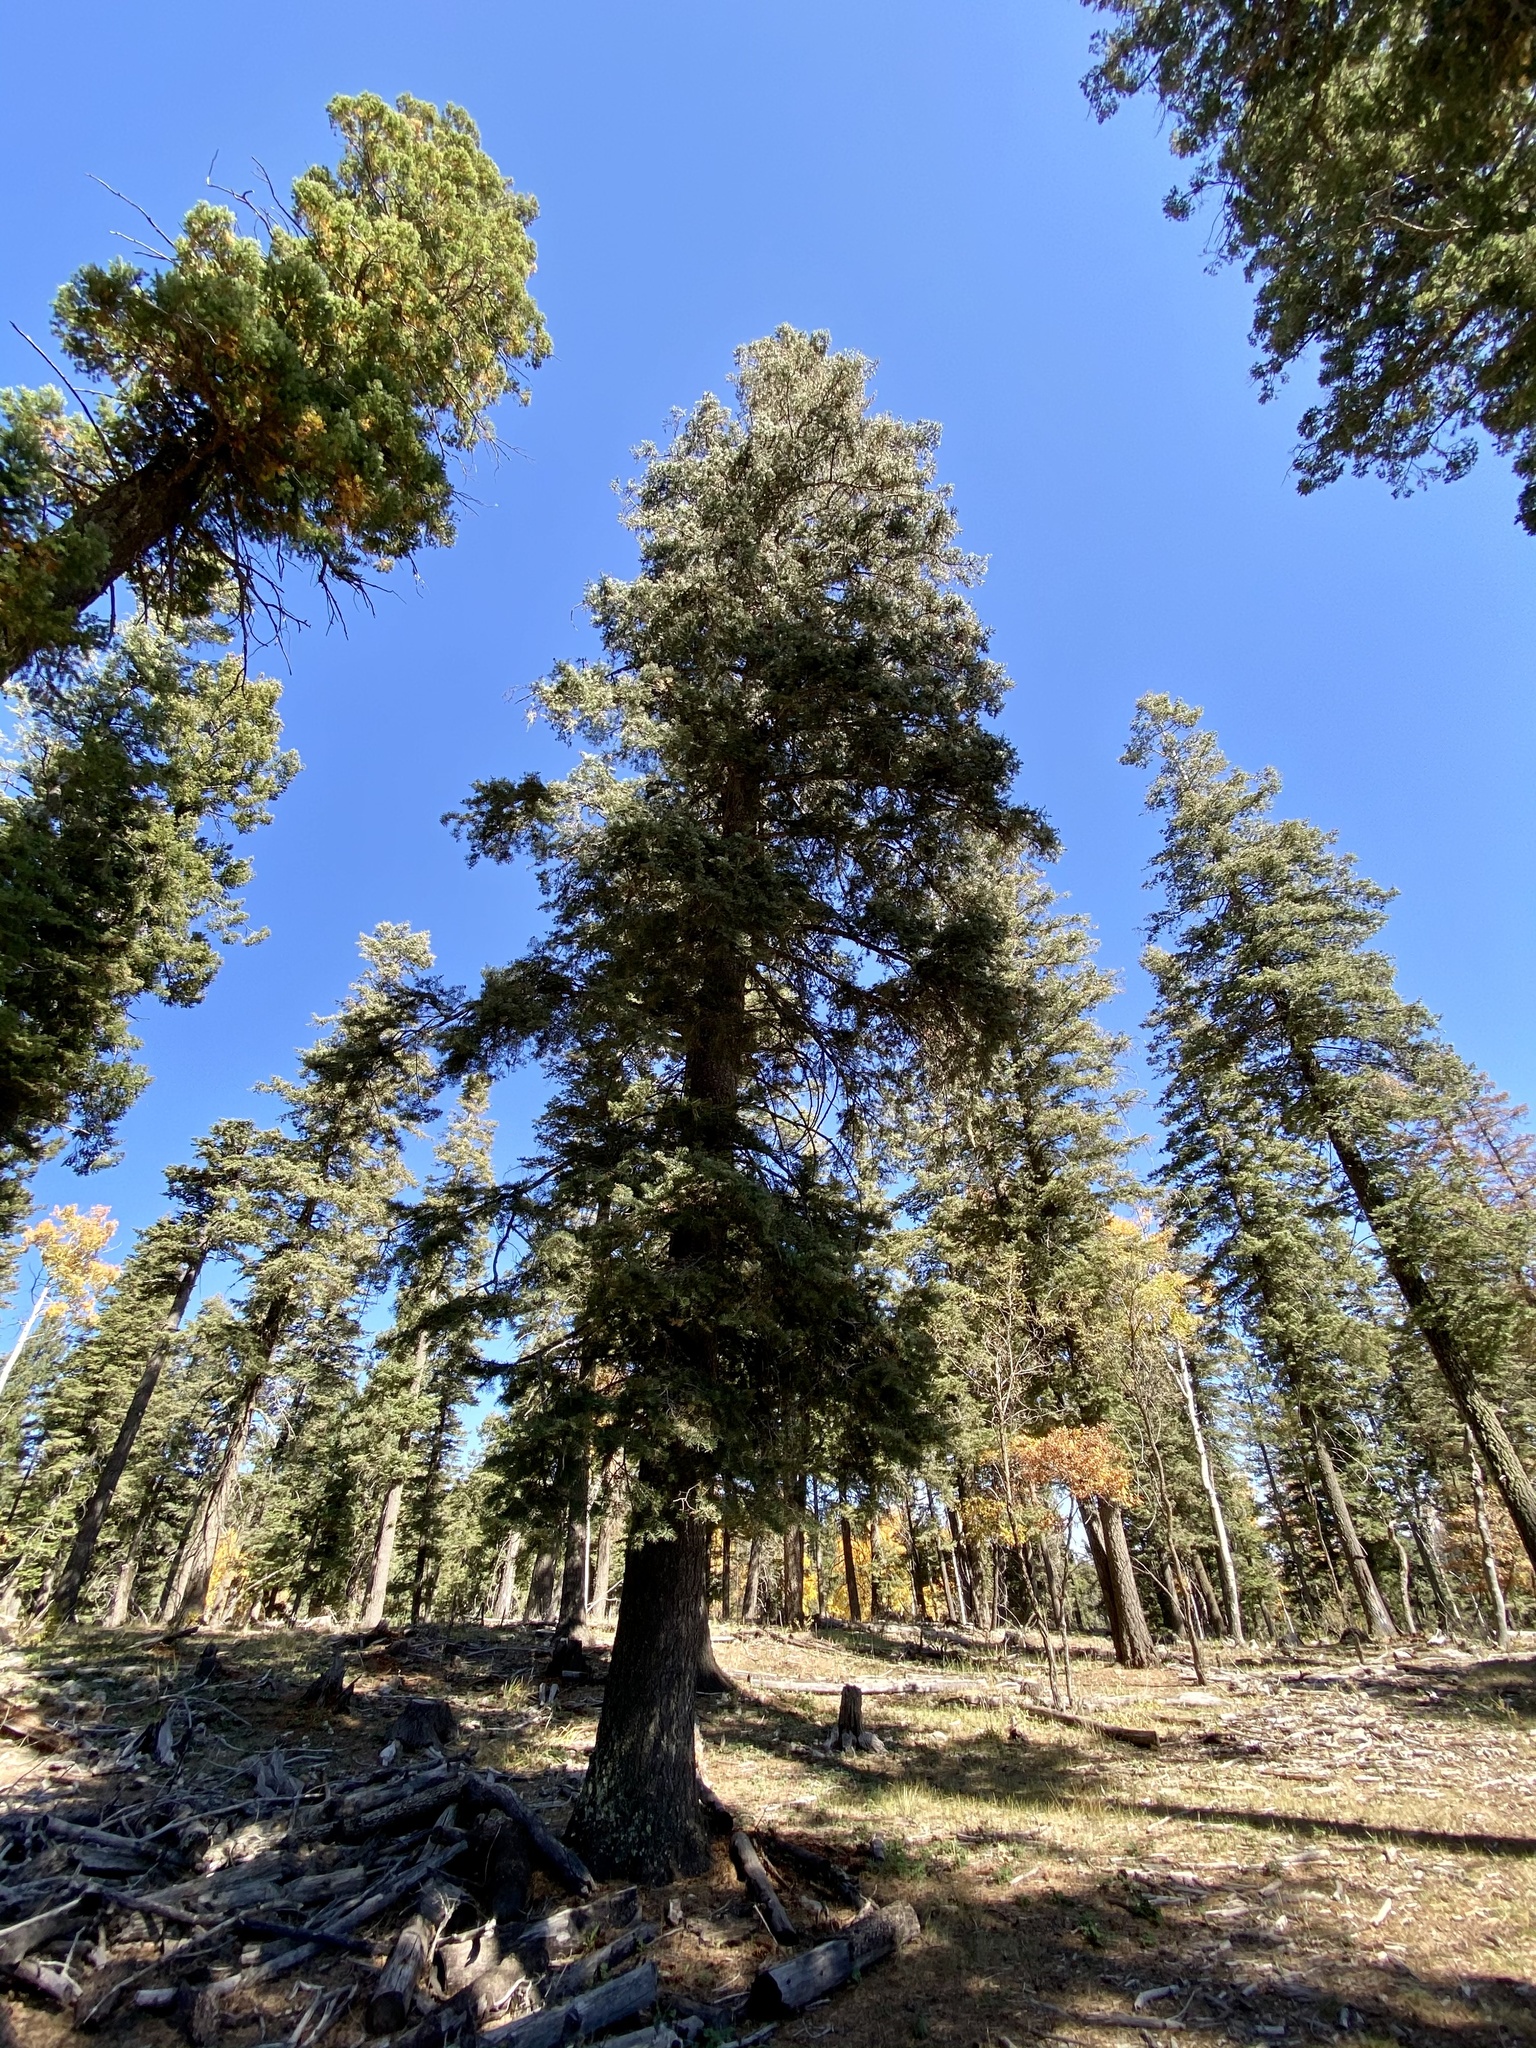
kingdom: Plantae
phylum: Tracheophyta
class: Pinopsida
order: Pinales
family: Pinaceae
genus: Abies
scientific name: Abies concolor
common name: Colorado fir
